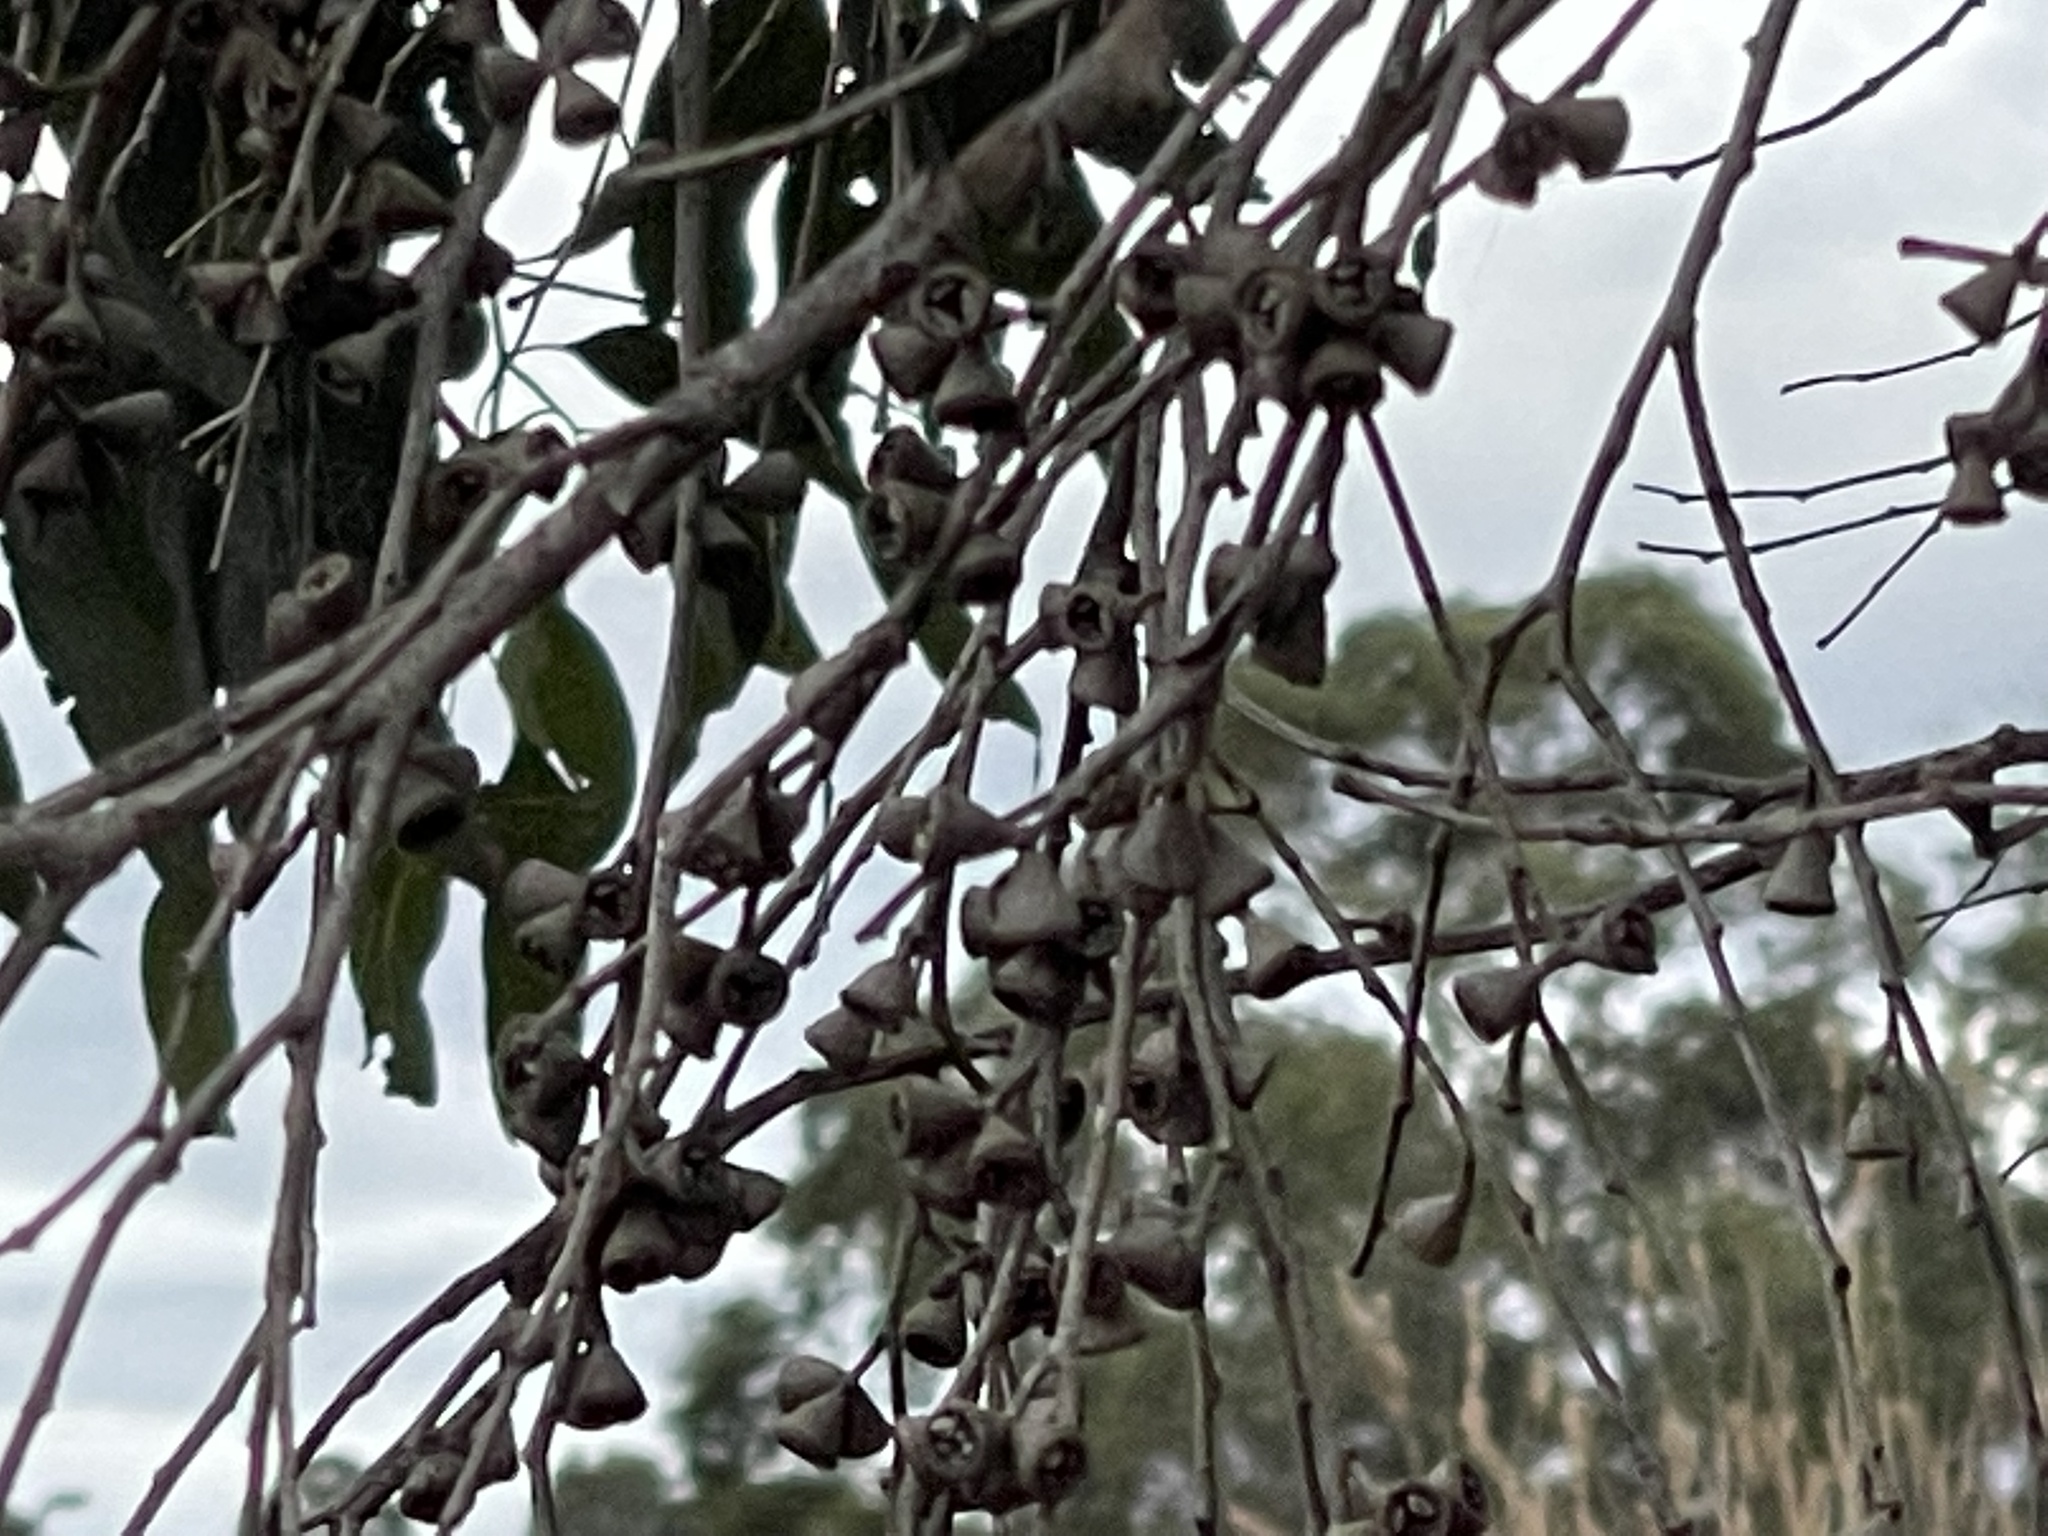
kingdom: Plantae
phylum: Tracheophyta
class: Magnoliopsida
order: Myrtales
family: Myrtaceae
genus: Eucalyptus
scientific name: Eucalyptus ovata
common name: Black-gum
